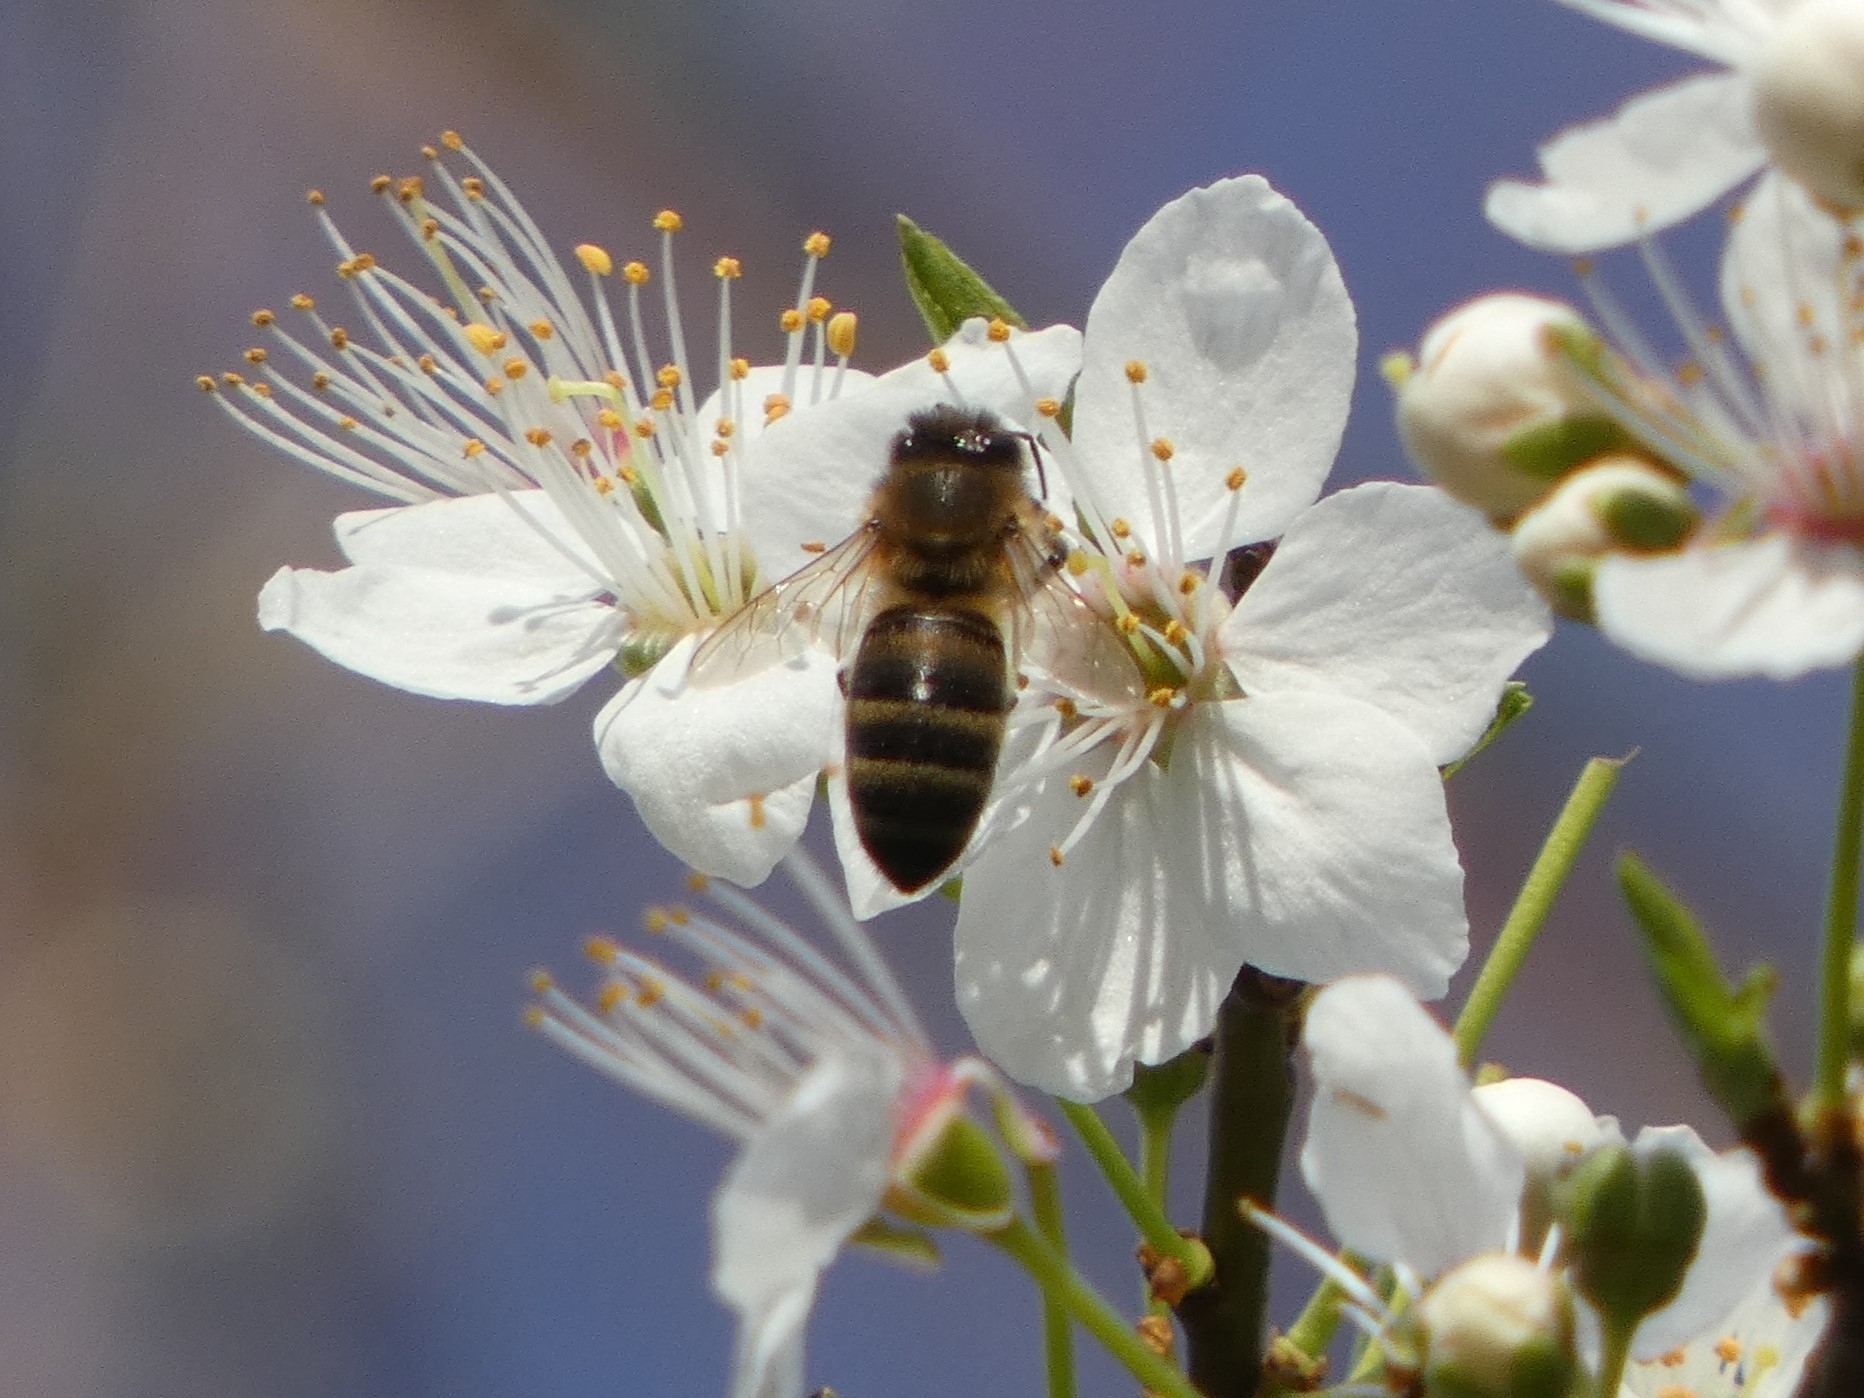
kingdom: Animalia
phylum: Arthropoda
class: Insecta
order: Hymenoptera
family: Apidae
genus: Apis
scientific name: Apis mellifera
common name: Honey bee
